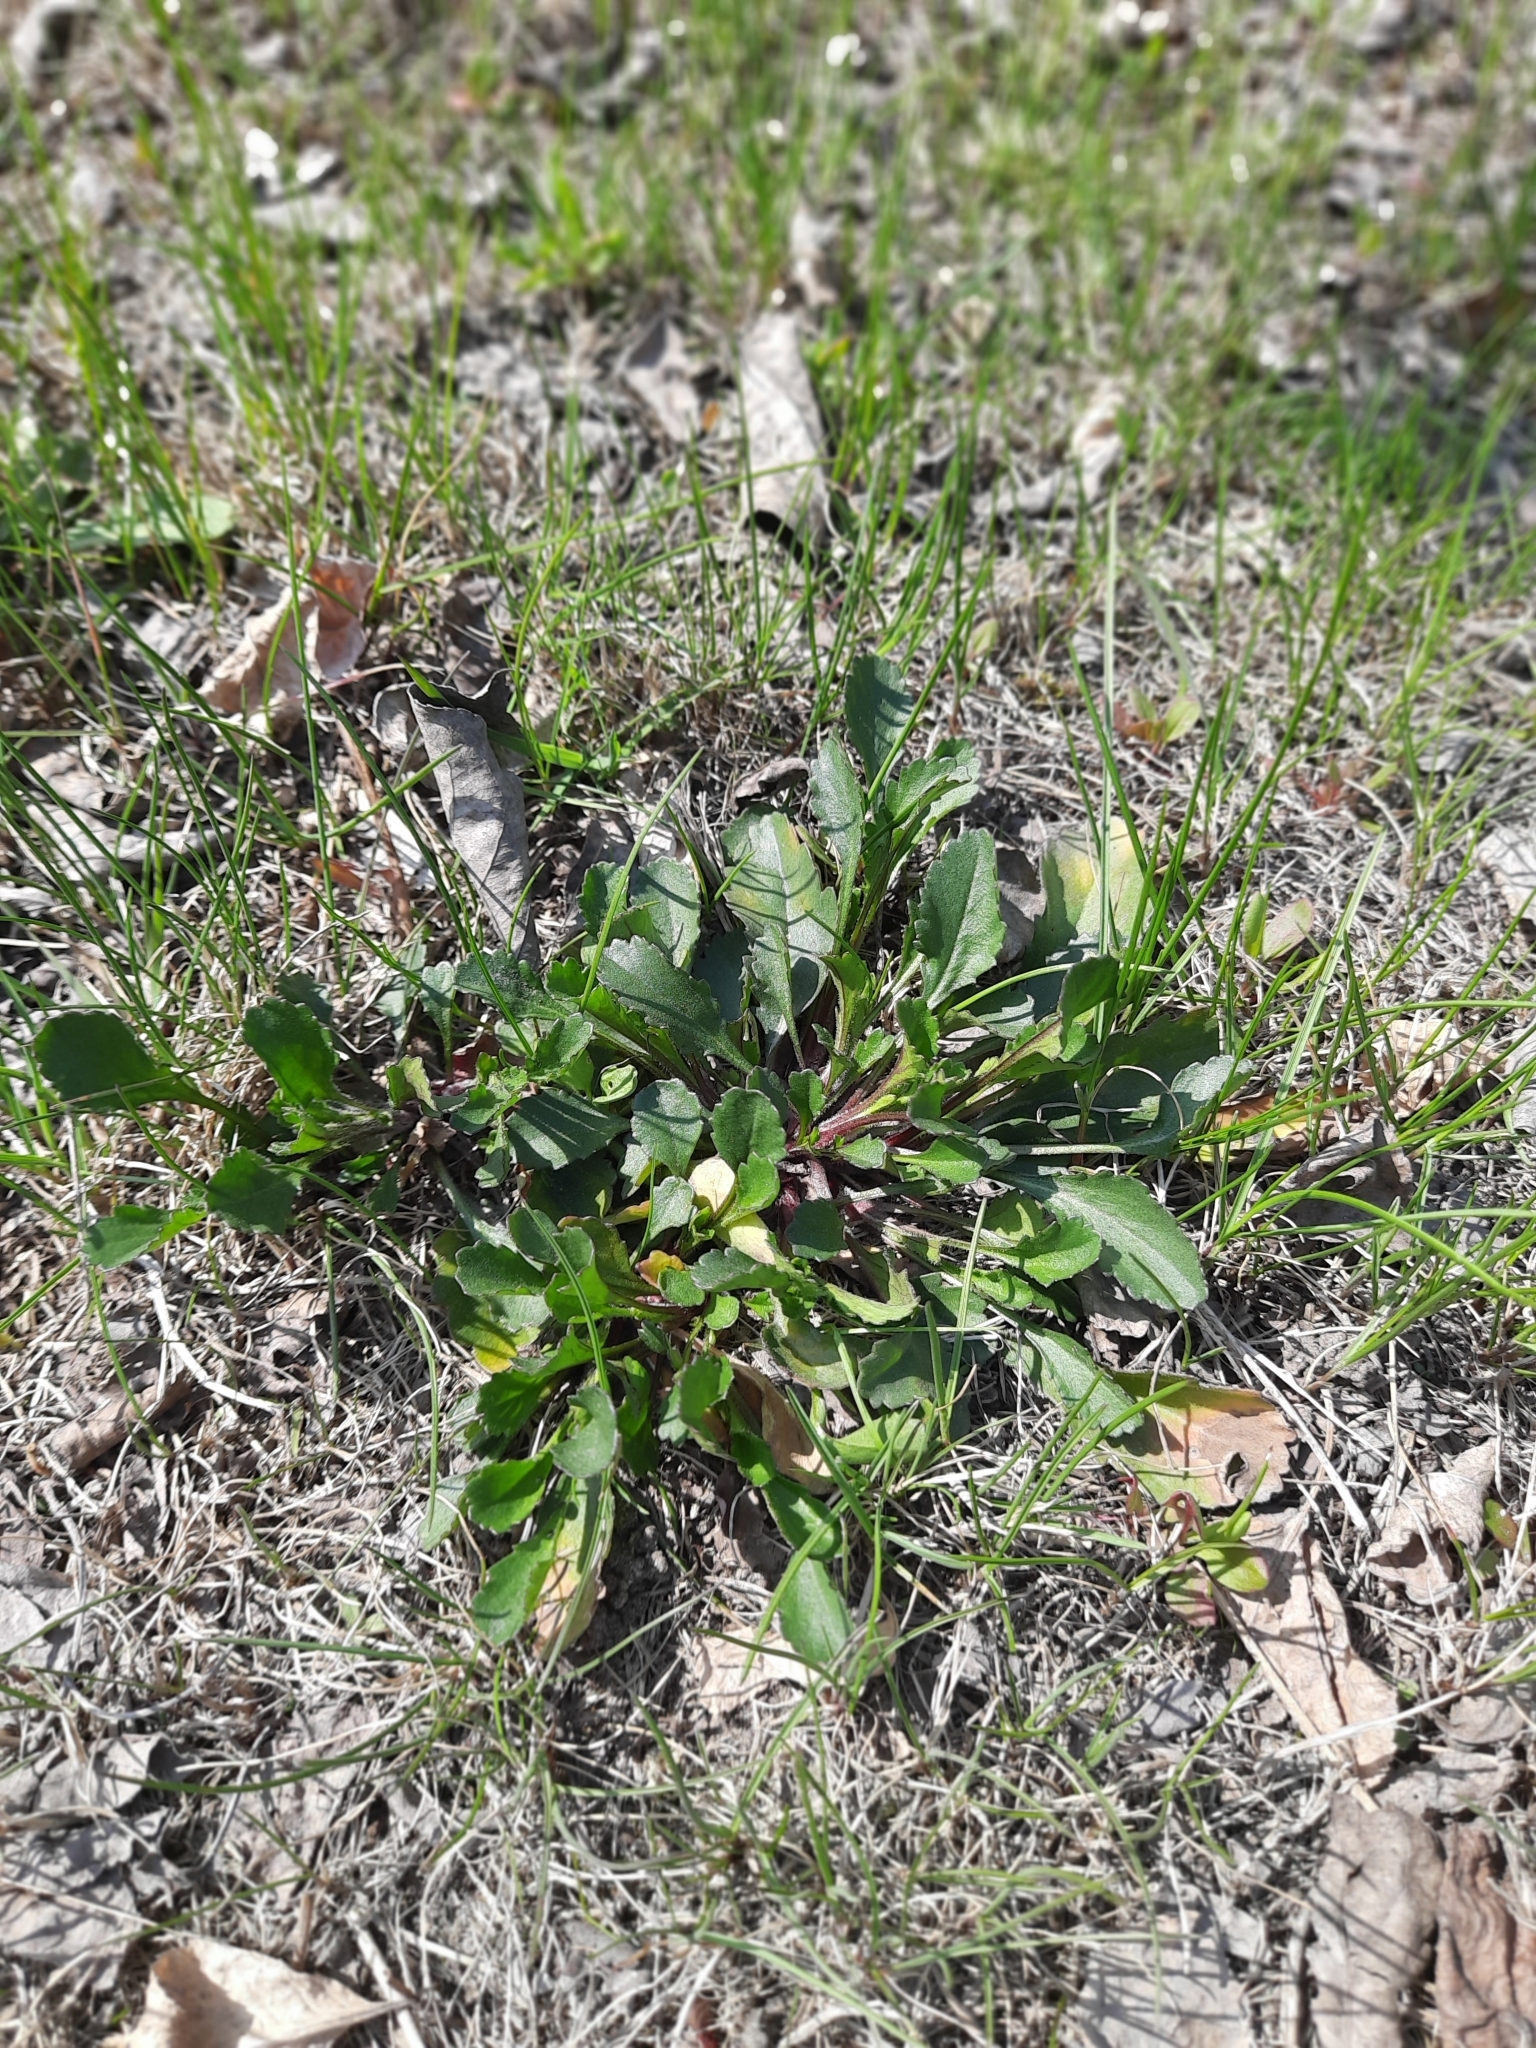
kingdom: Plantae
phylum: Tracheophyta
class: Magnoliopsida
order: Asterales
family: Asteraceae
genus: Leucanthemum
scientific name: Leucanthemum ircutianum
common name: Daisy
